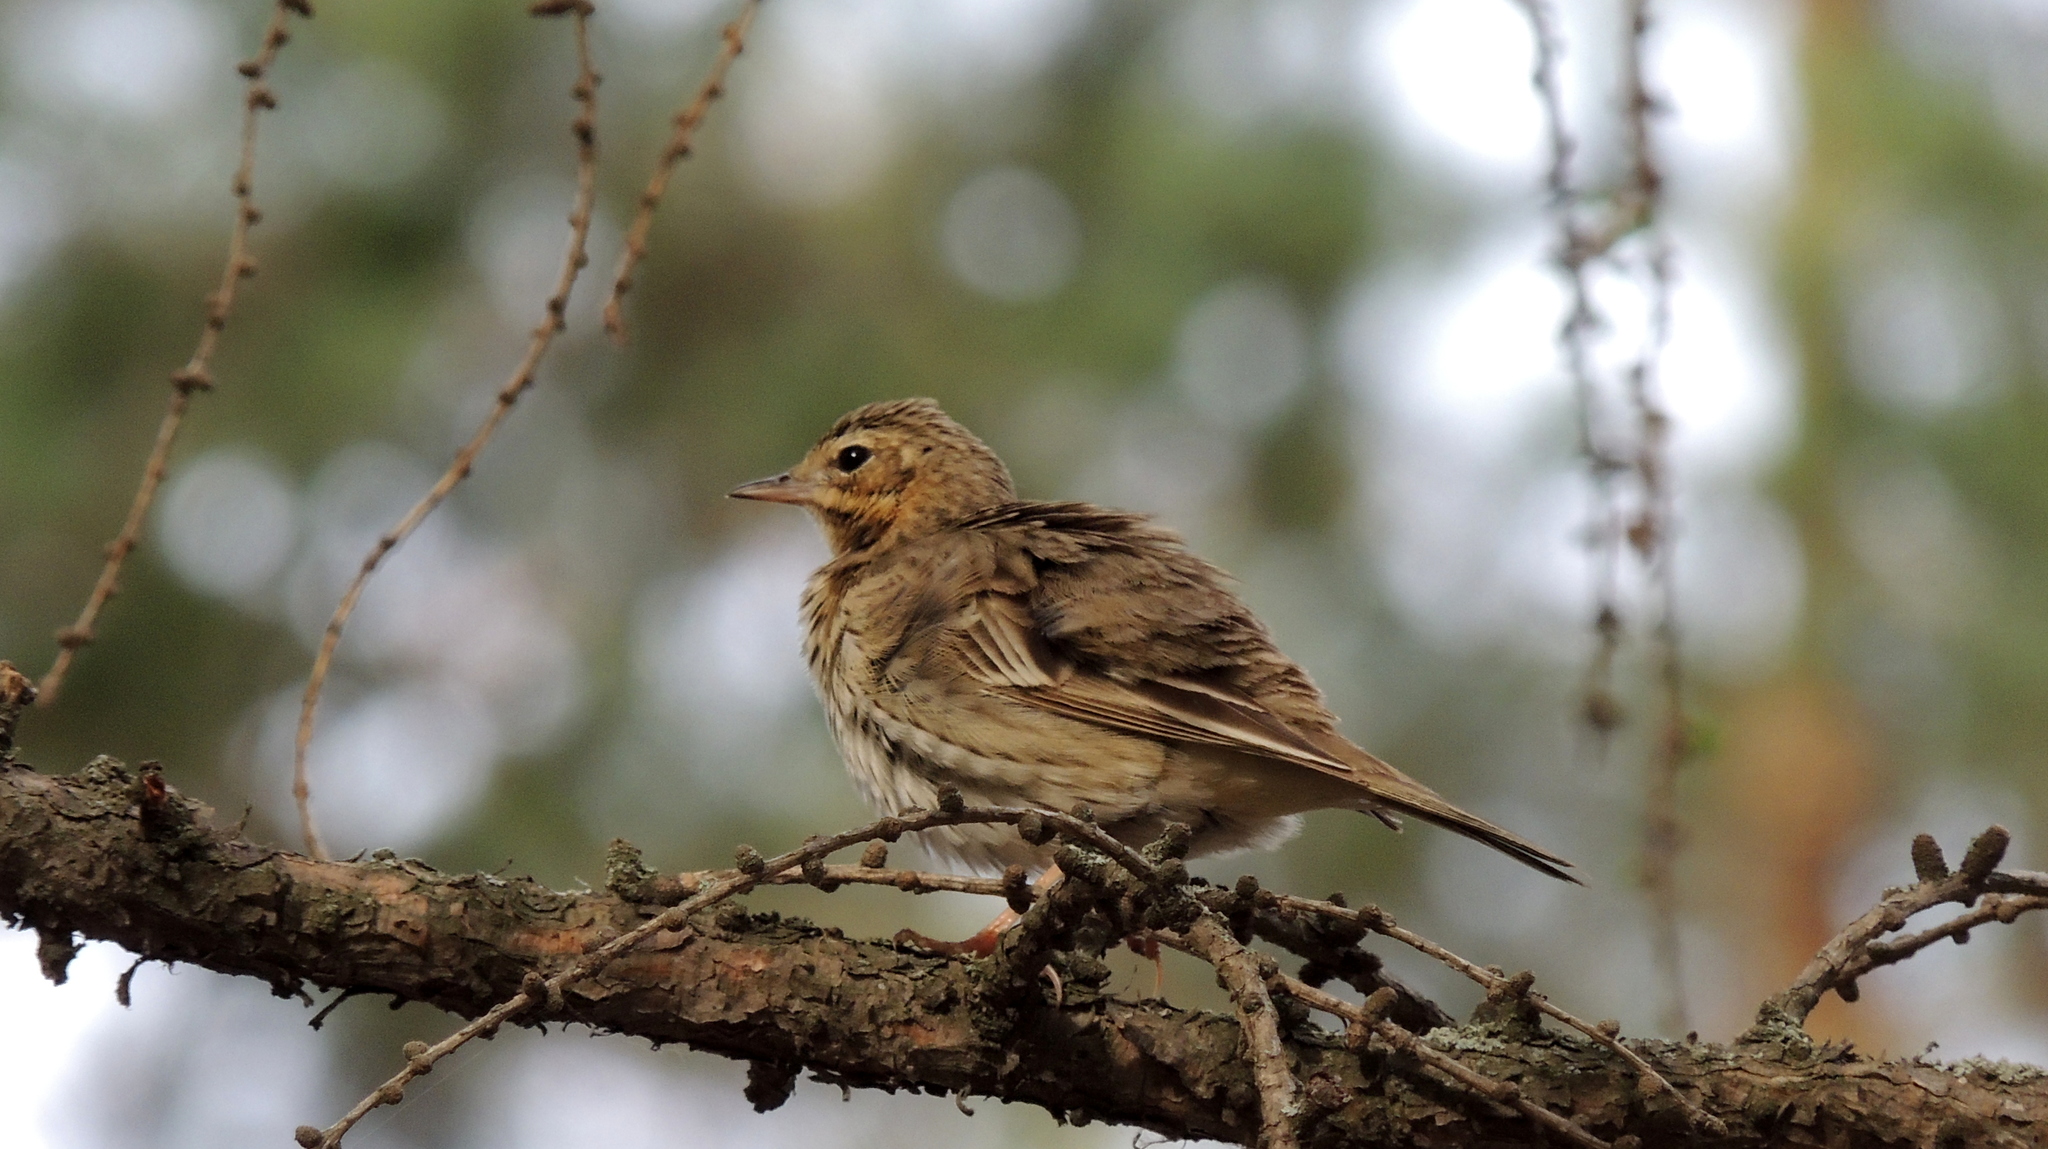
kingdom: Animalia
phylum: Chordata
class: Aves
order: Passeriformes
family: Motacillidae
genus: Anthus
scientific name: Anthus trivialis
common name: Tree pipit
